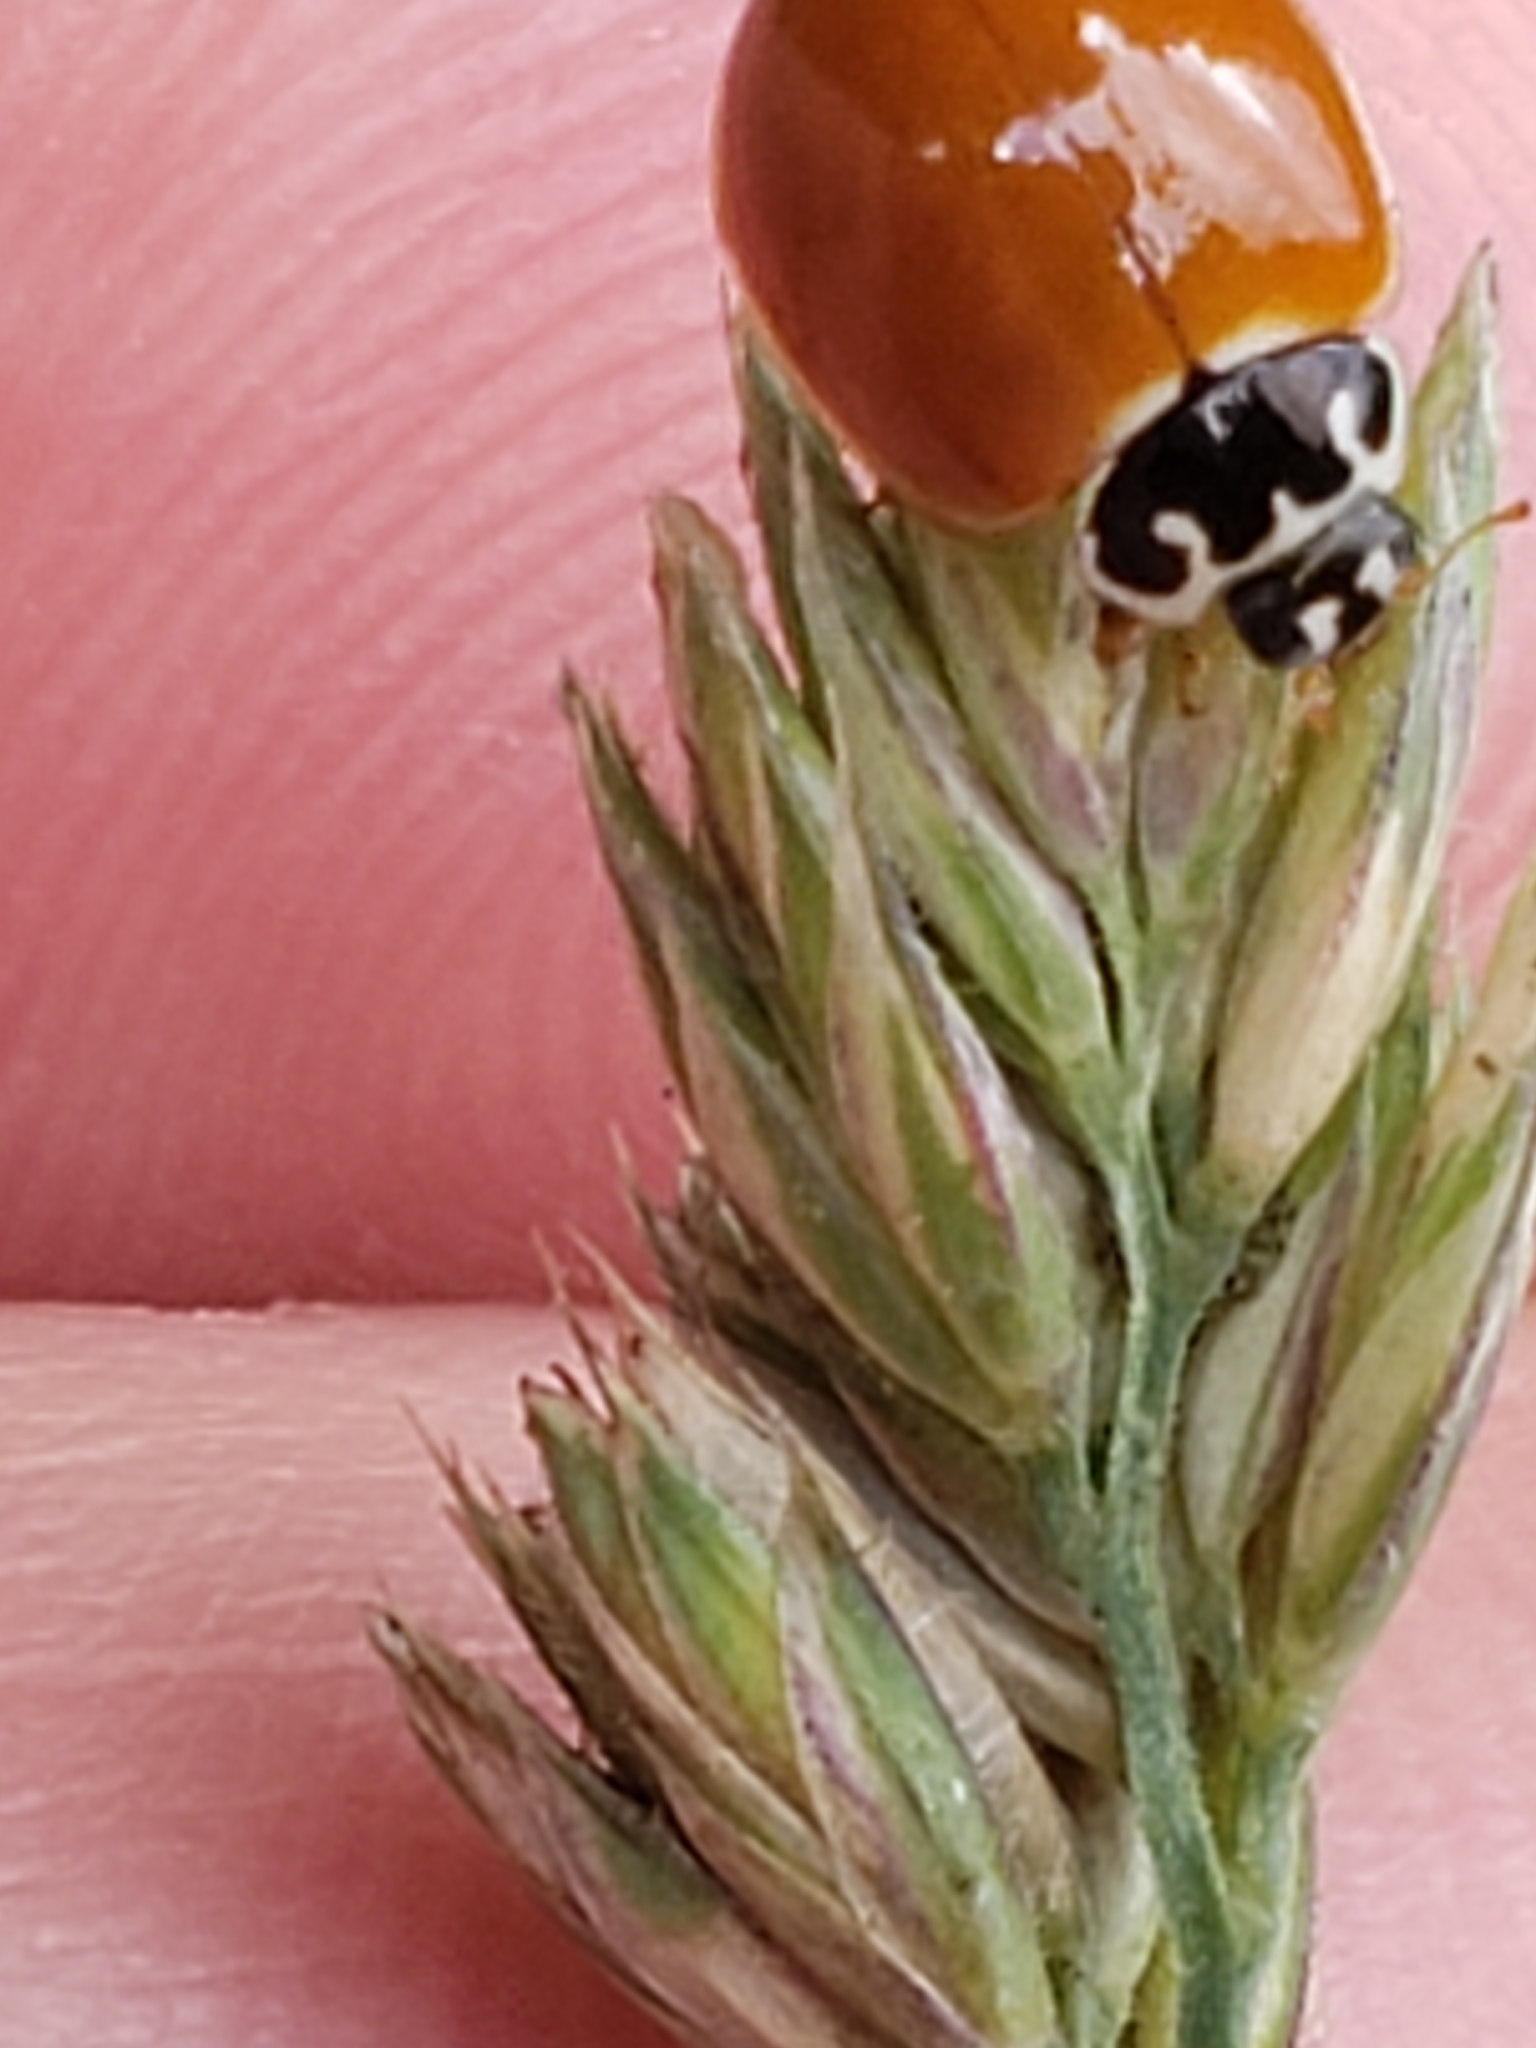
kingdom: Animalia
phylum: Arthropoda
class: Insecta
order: Coleoptera
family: Coccinellidae
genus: Cycloneda
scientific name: Cycloneda munda
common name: Polished lady beetle
